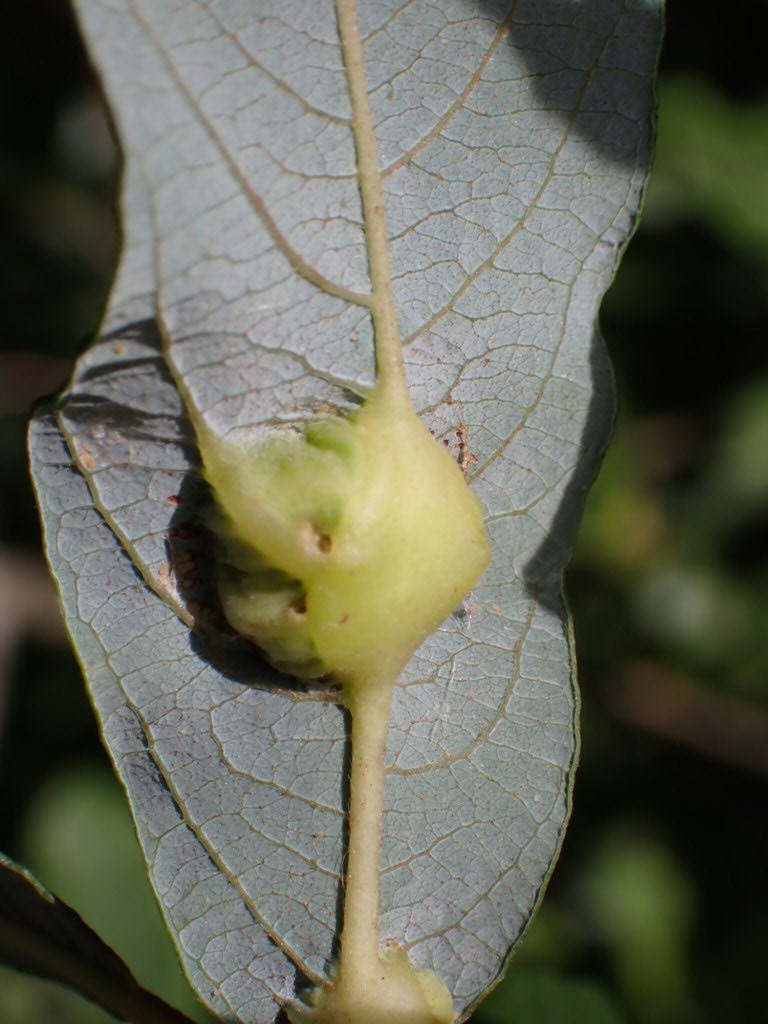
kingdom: Animalia
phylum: Arthropoda
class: Insecta
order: Diptera
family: Cecidomyiidae
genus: Iteomyia
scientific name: Iteomyia major
